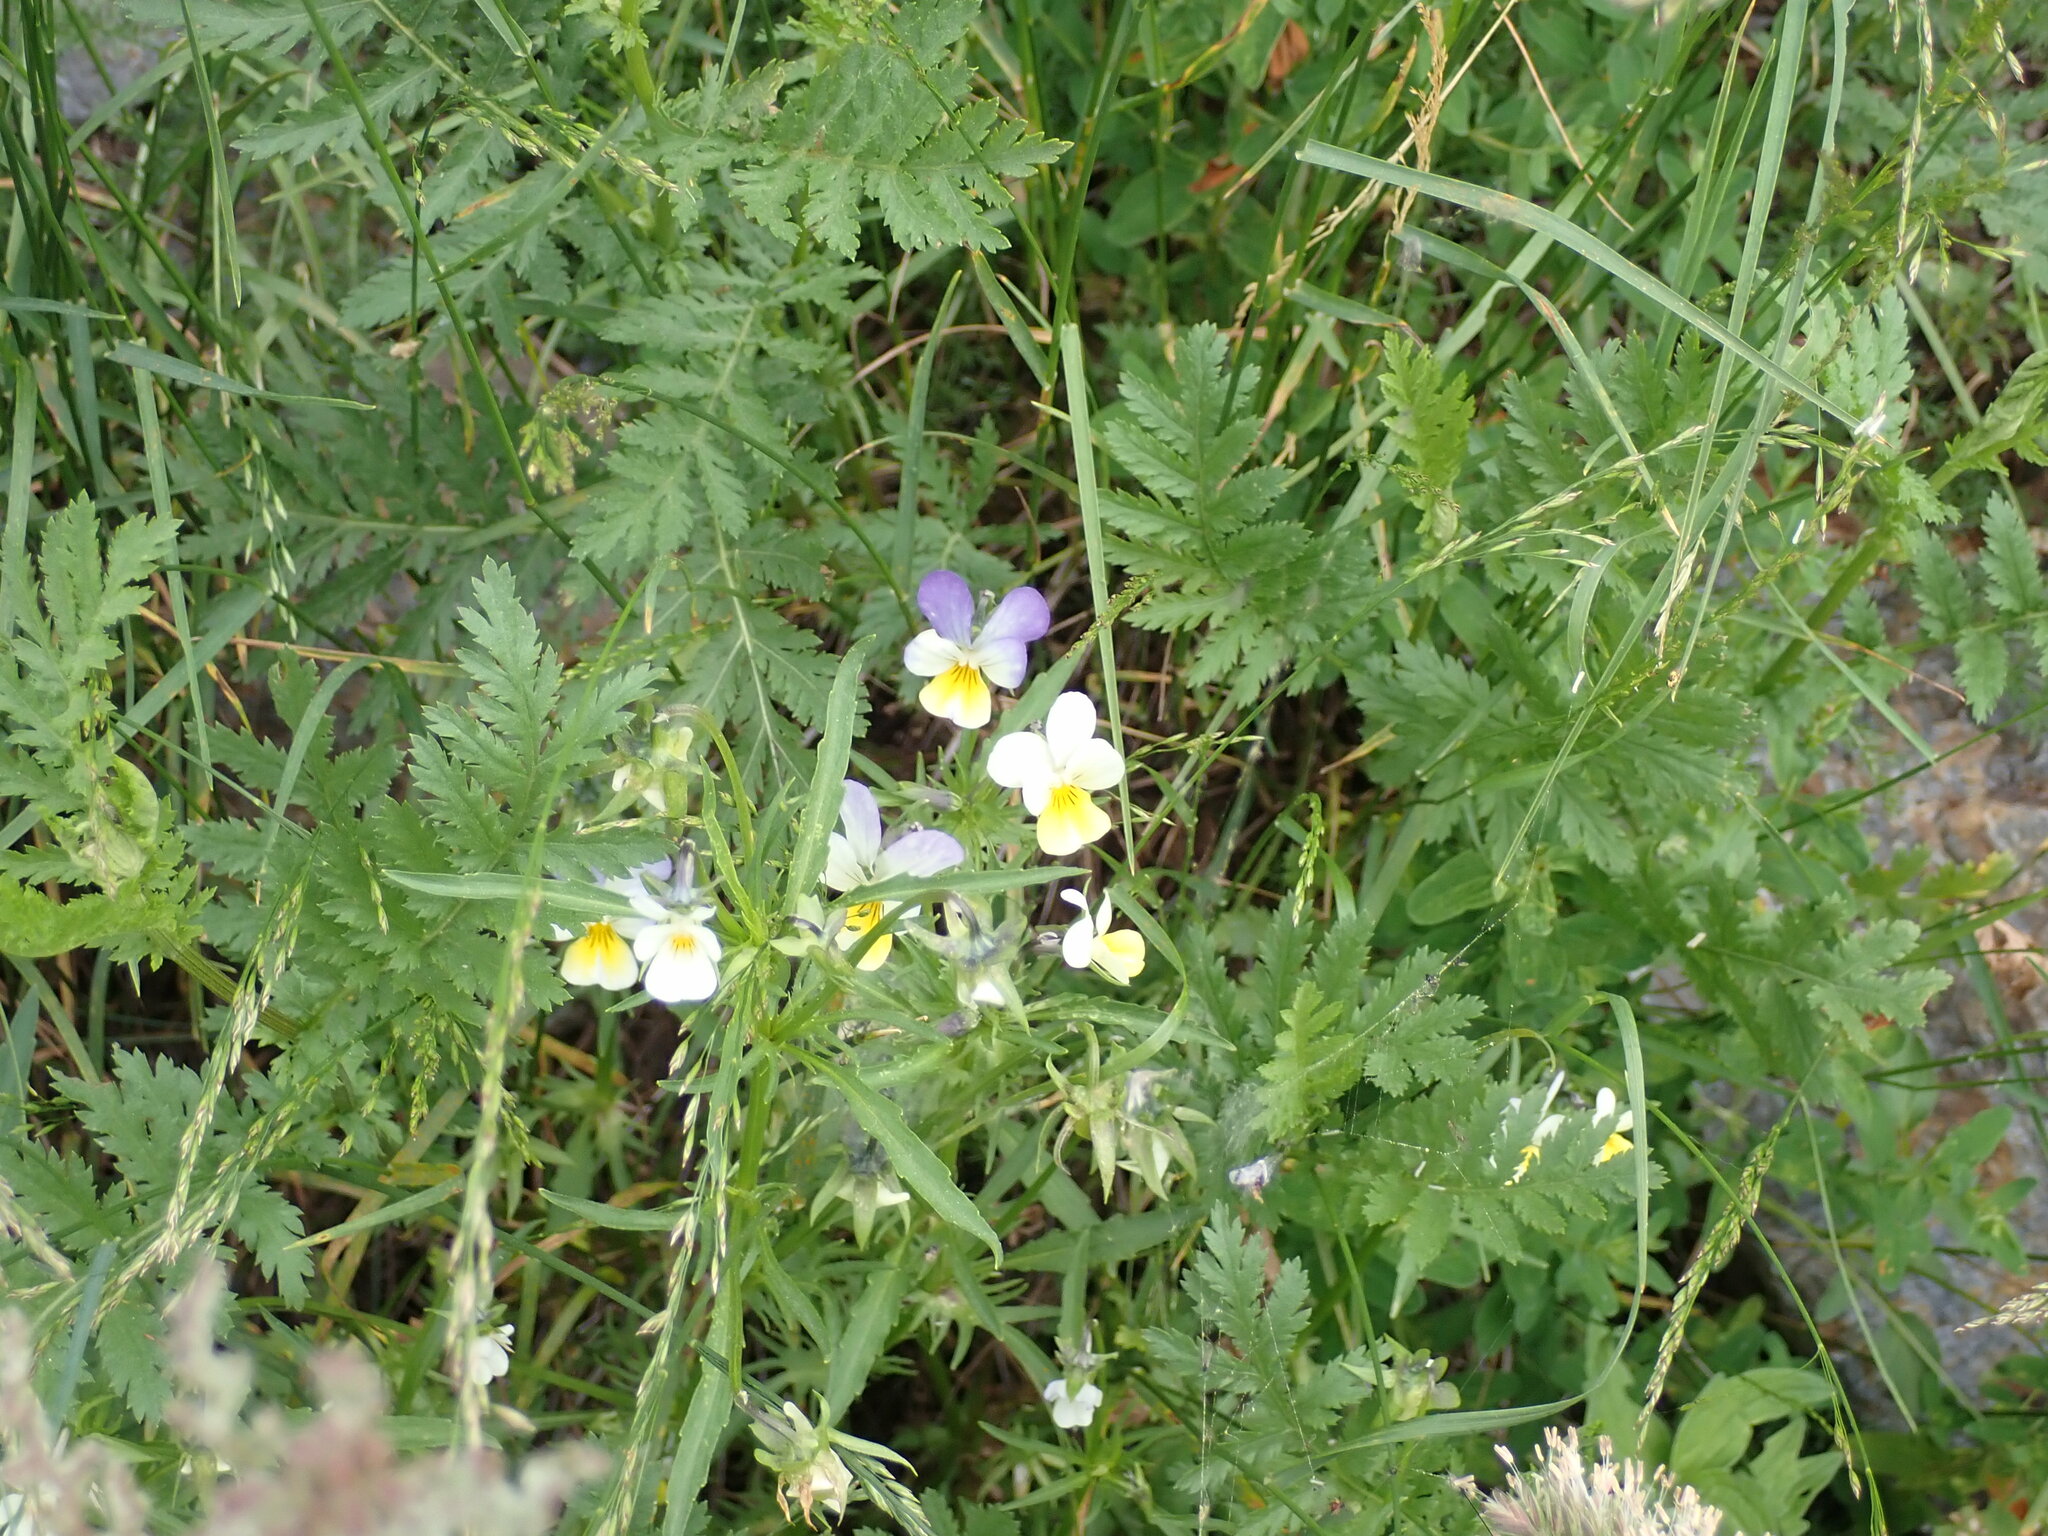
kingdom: Plantae
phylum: Tracheophyta
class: Magnoliopsida
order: Malpighiales
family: Violaceae
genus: Viola
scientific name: Viola tricolor
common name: Pansy
